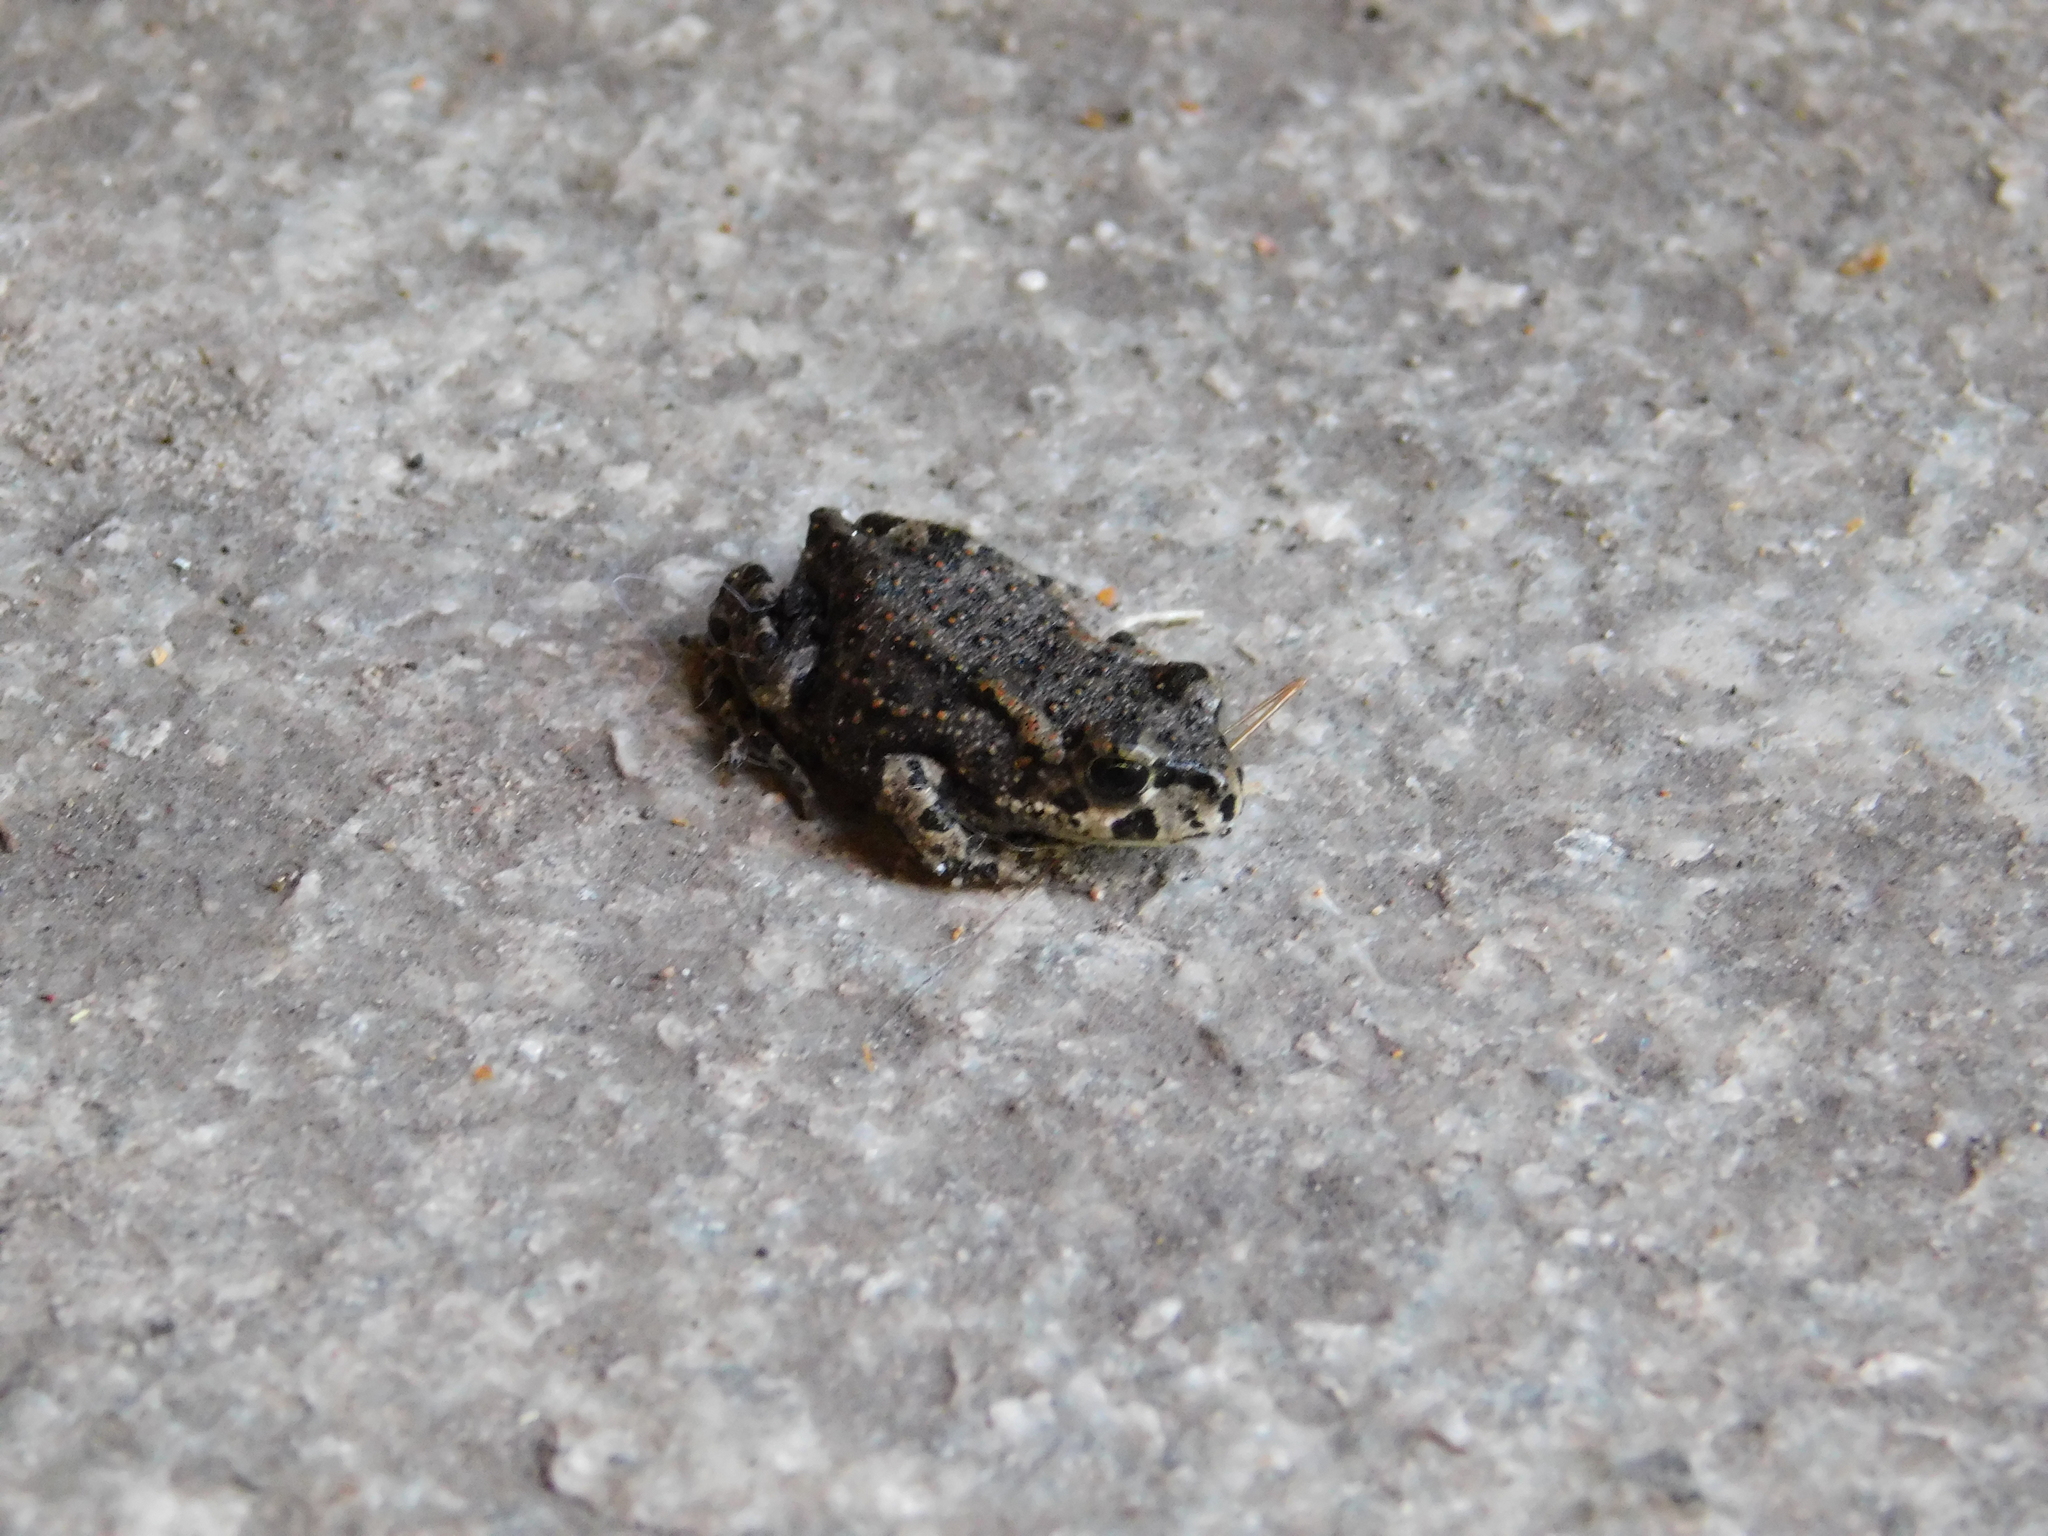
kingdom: Animalia
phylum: Chordata
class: Amphibia
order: Anura
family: Bufonidae
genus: Bufotes
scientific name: Bufotes viridis
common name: European green toad
